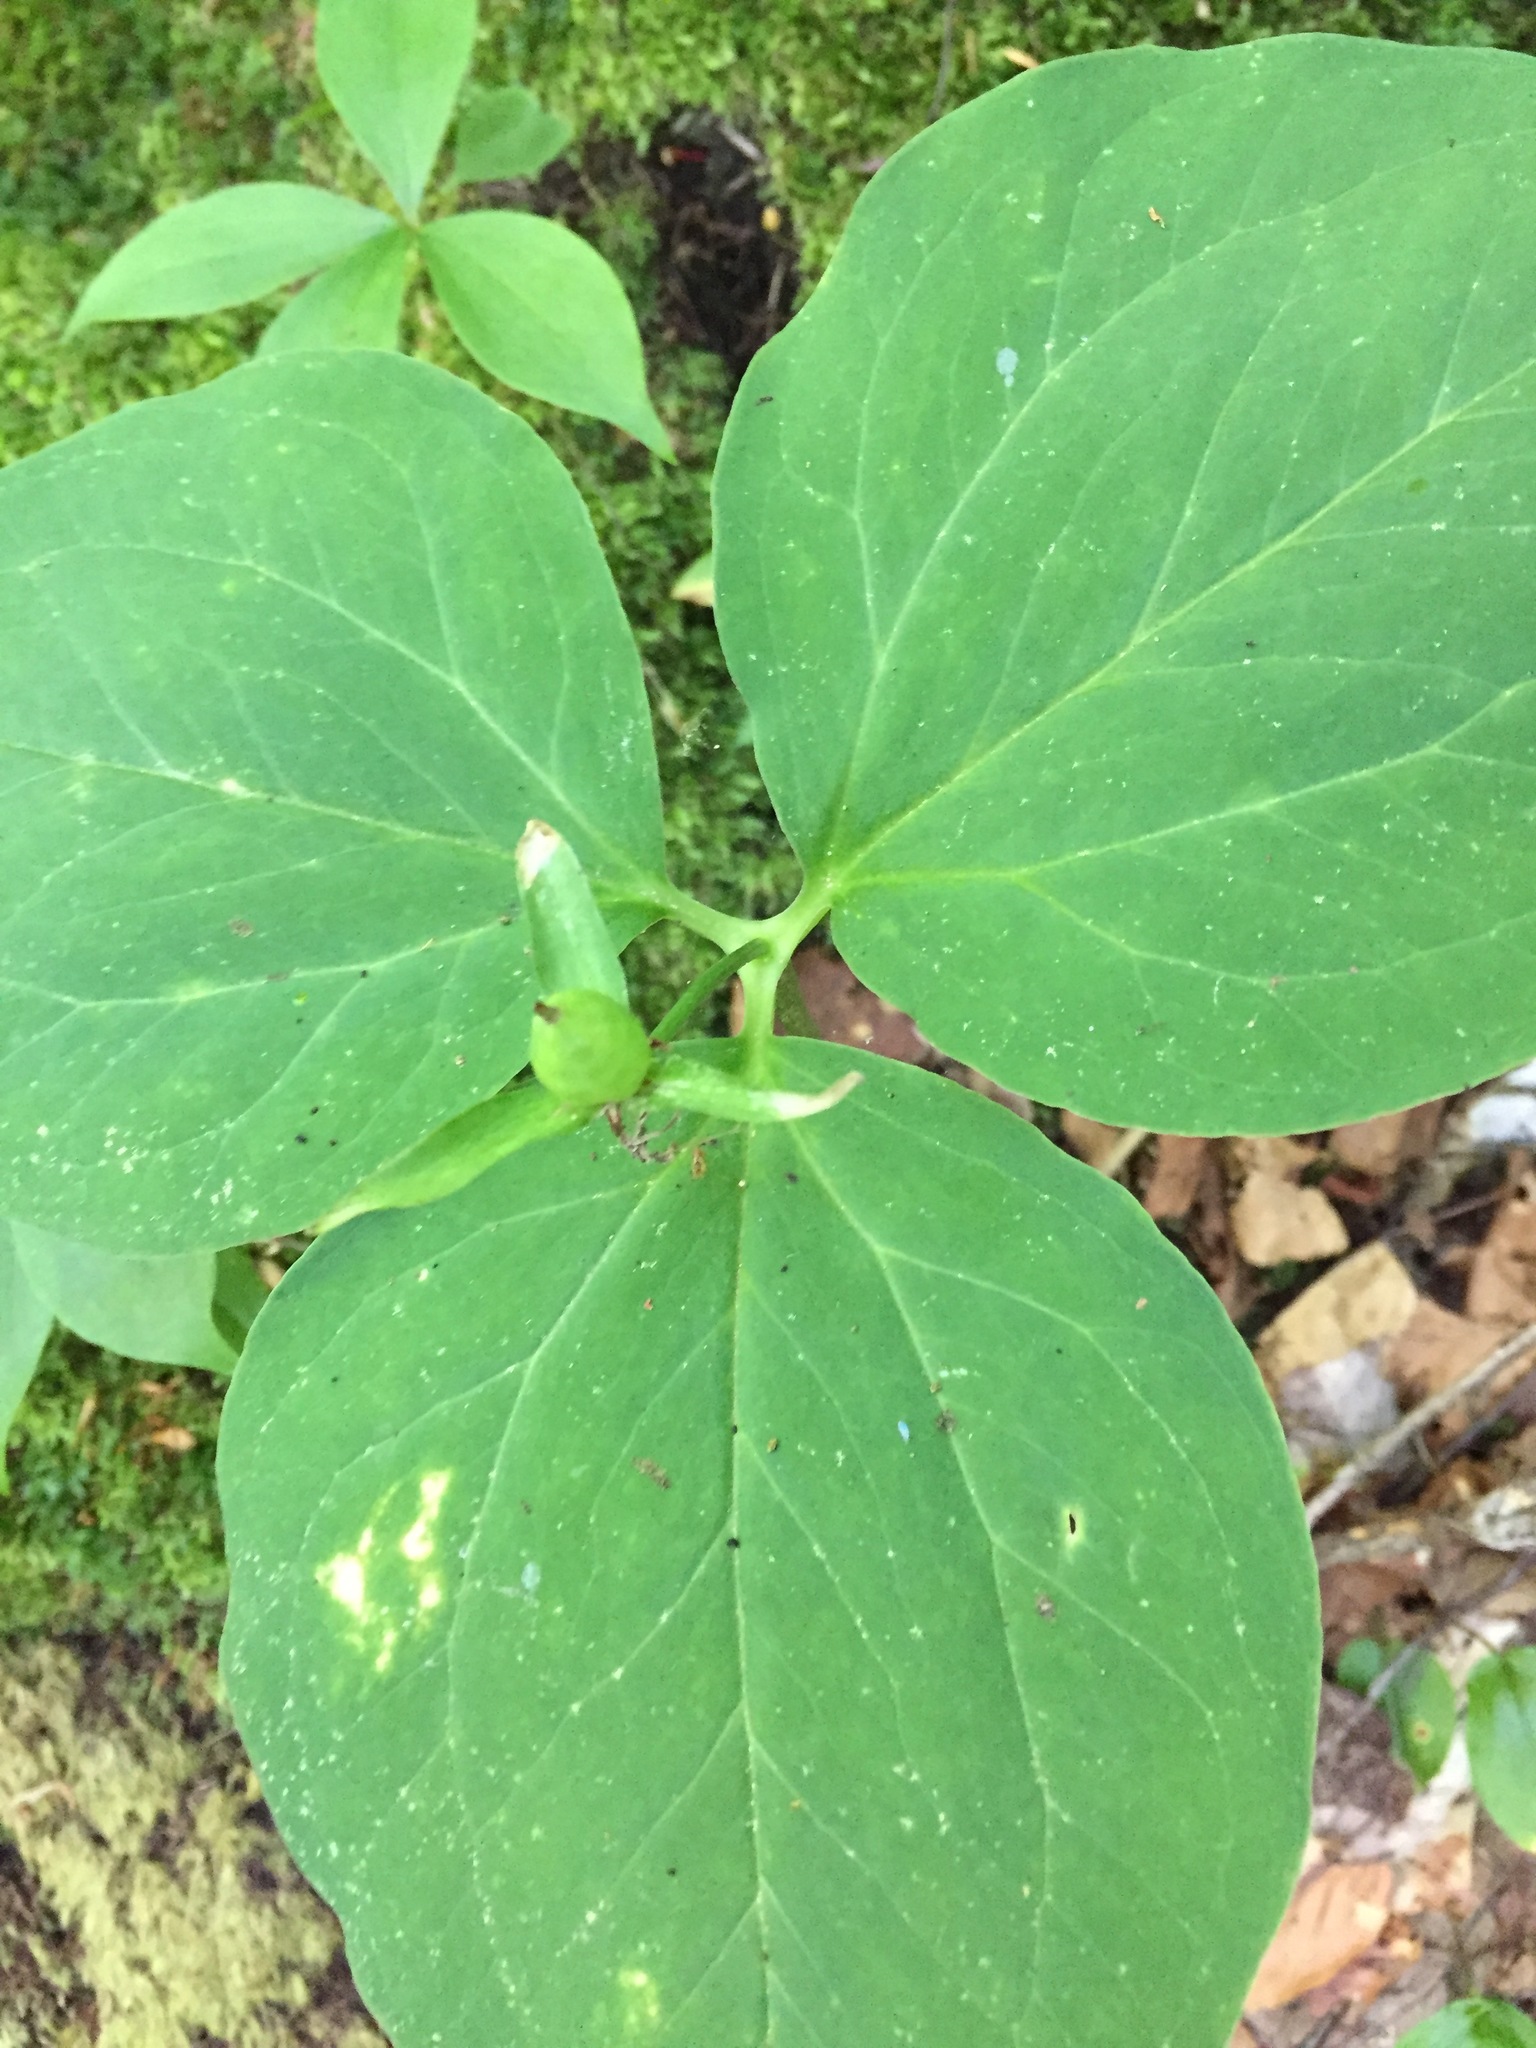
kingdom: Plantae
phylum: Tracheophyta
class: Liliopsida
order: Liliales
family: Melanthiaceae
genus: Trillium
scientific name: Trillium undulatum
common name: Paint trillium
